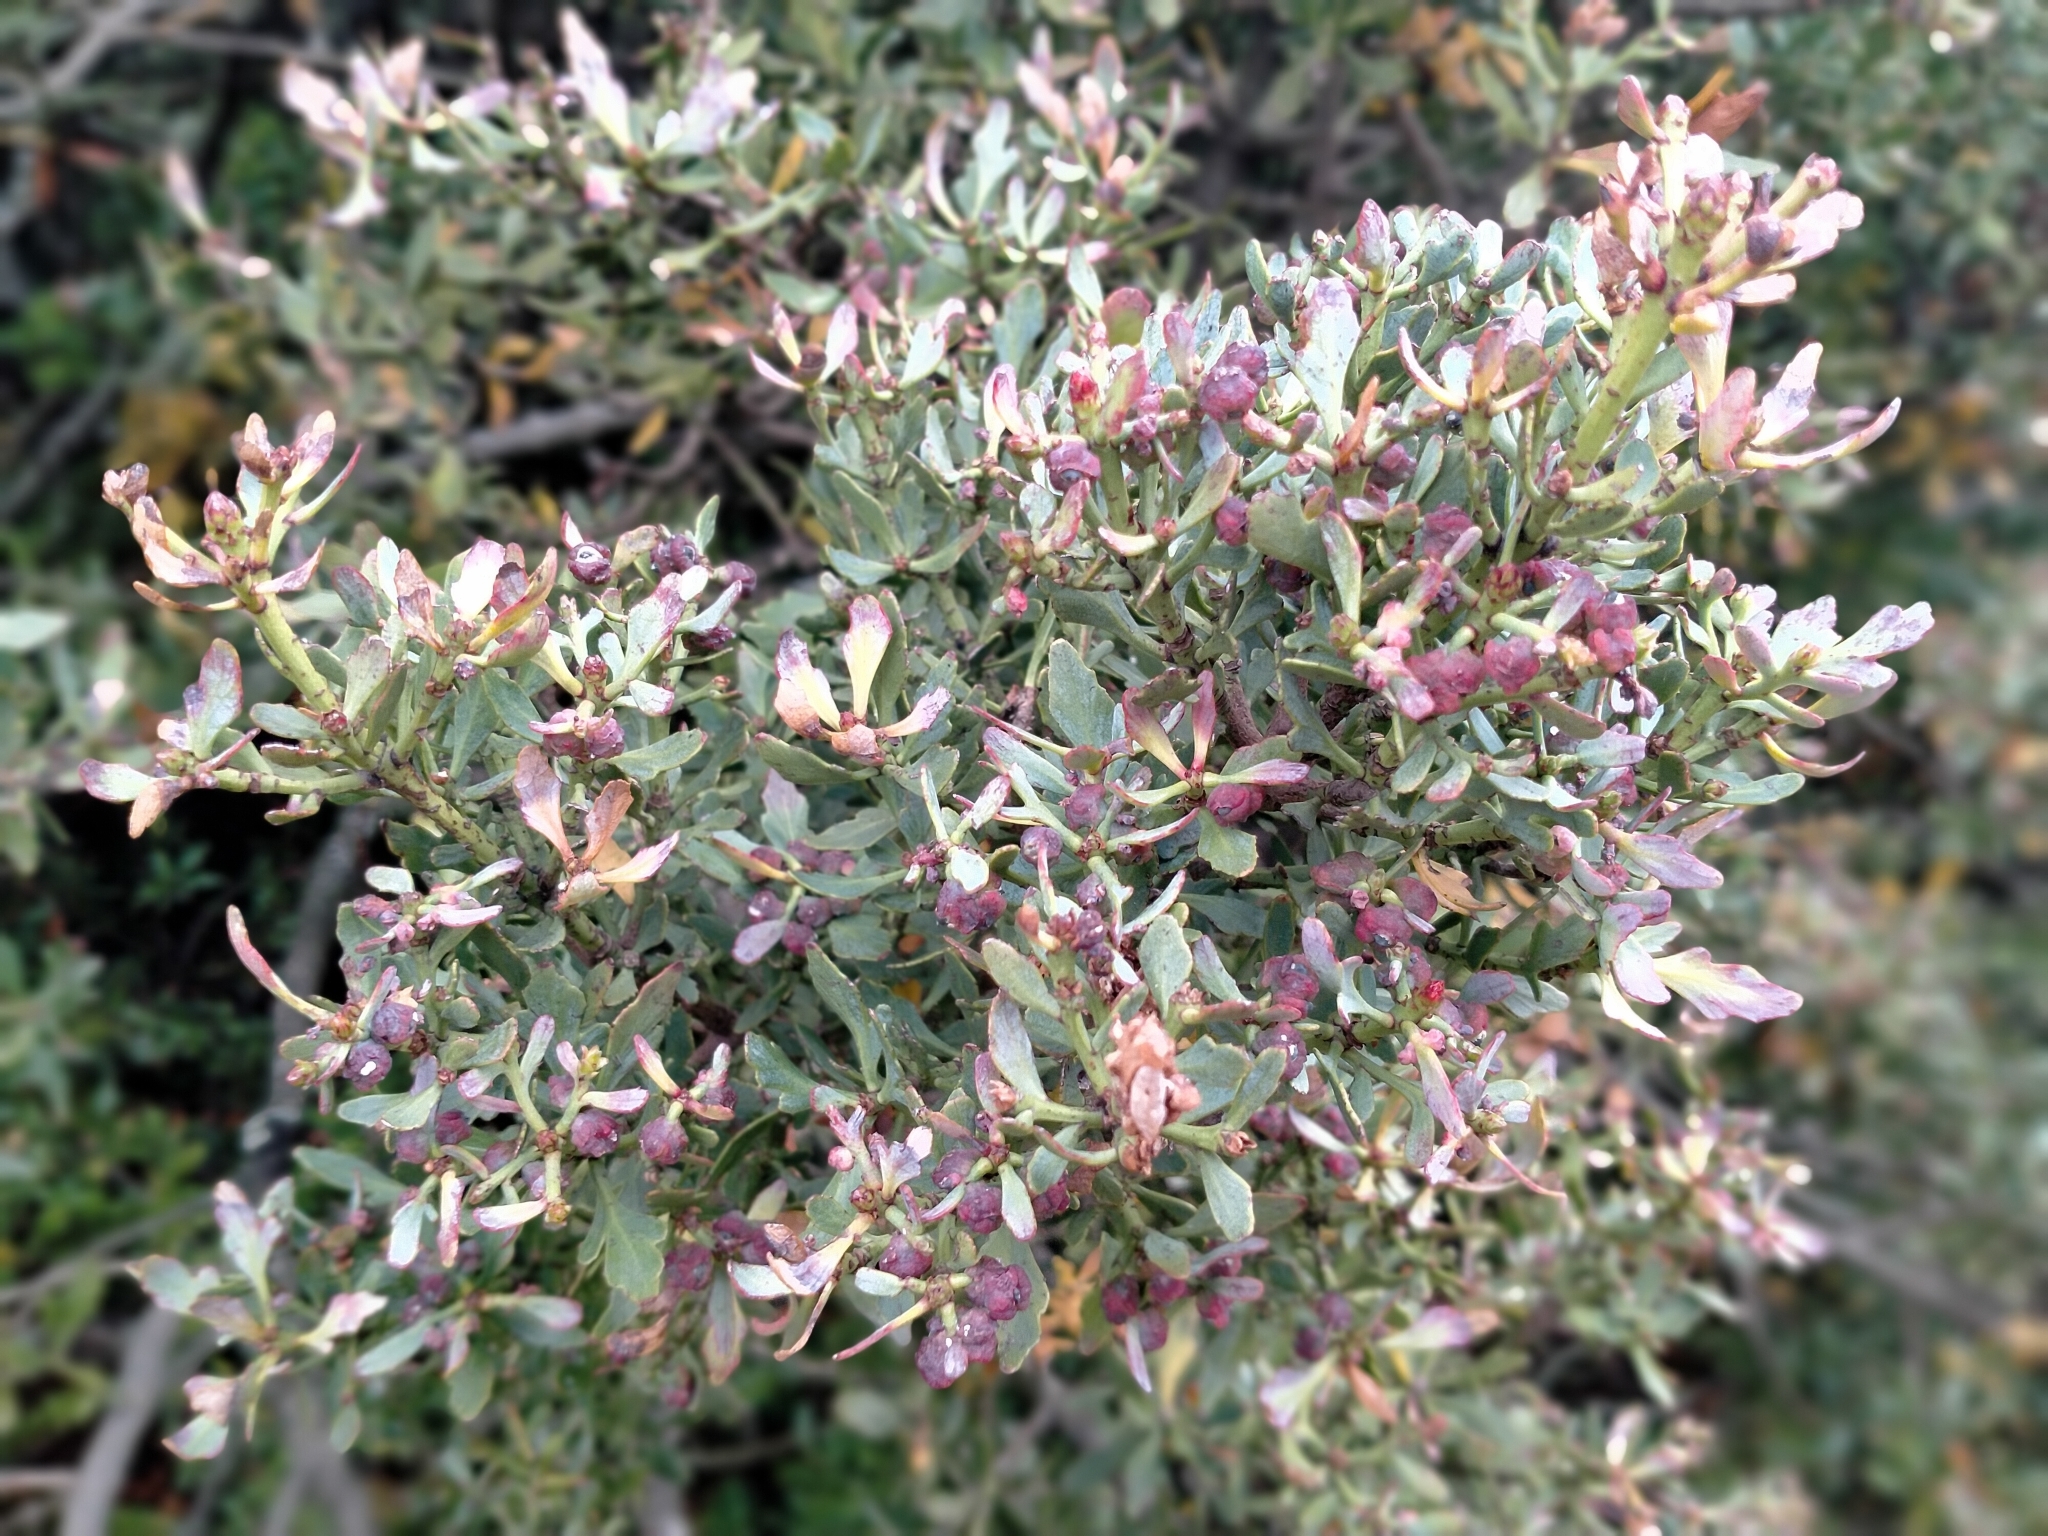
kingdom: Plantae
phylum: Tracheophyta
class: Pinopsida
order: Pinales
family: Phyllocladaceae
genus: Phyllocladus
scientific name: Phyllocladus trichomanoides
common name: Celery pine
